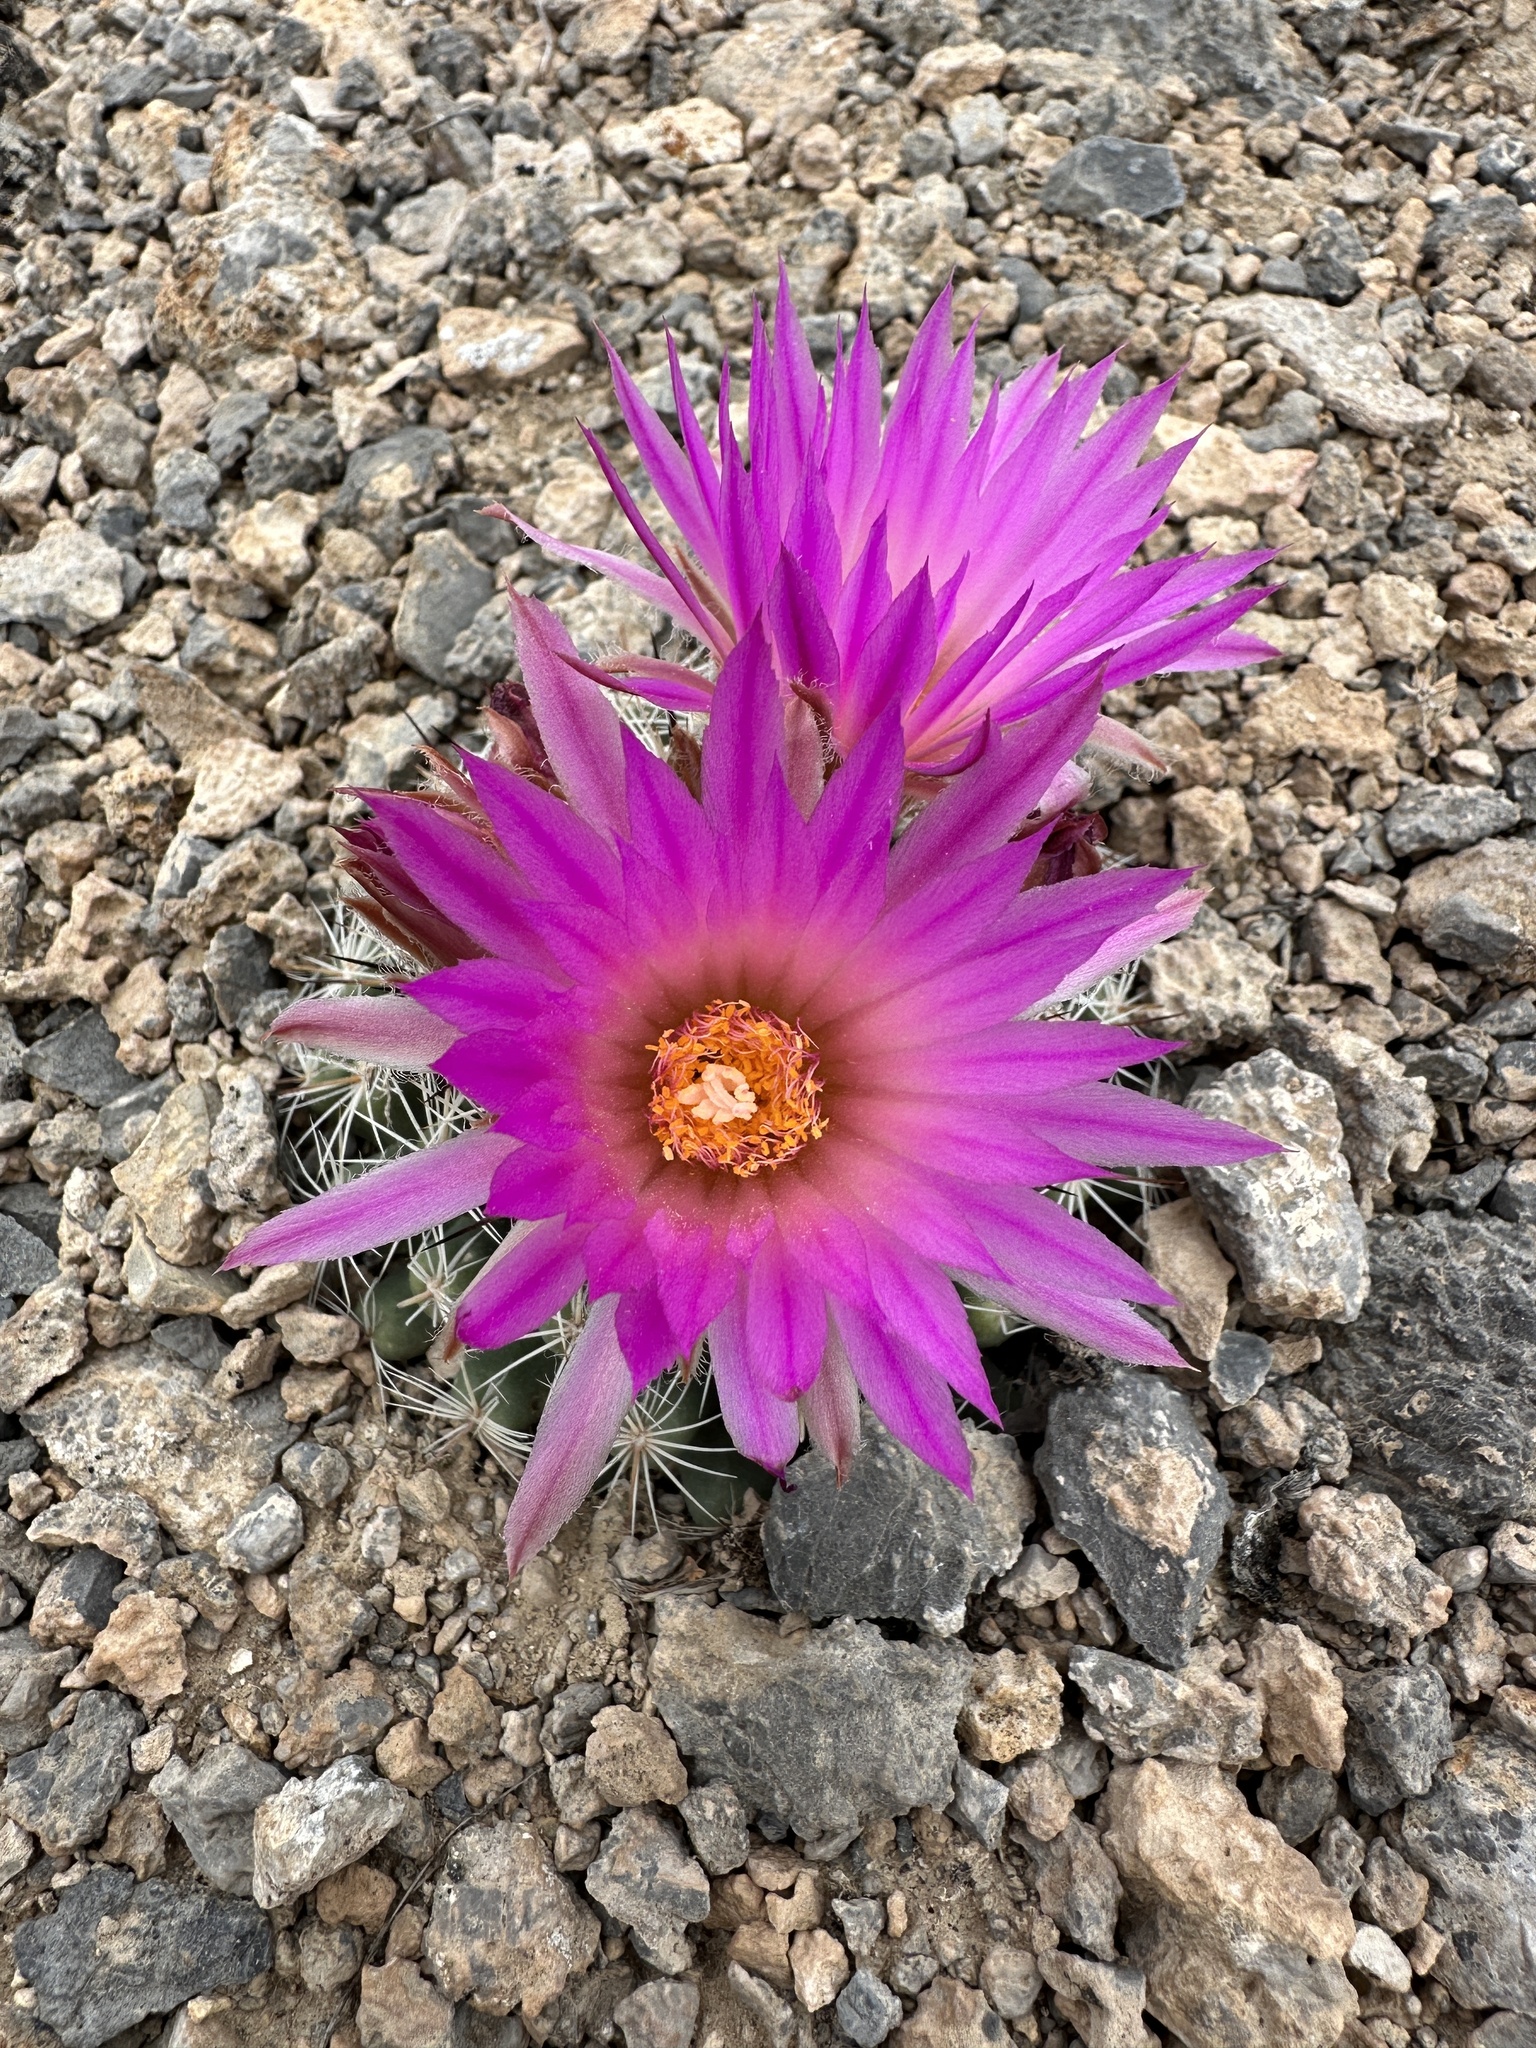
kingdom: Plantae
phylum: Tracheophyta
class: Magnoliopsida
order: Caryophyllales
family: Cactaceae
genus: Pelecyphora
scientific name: Pelecyphora vivipara
